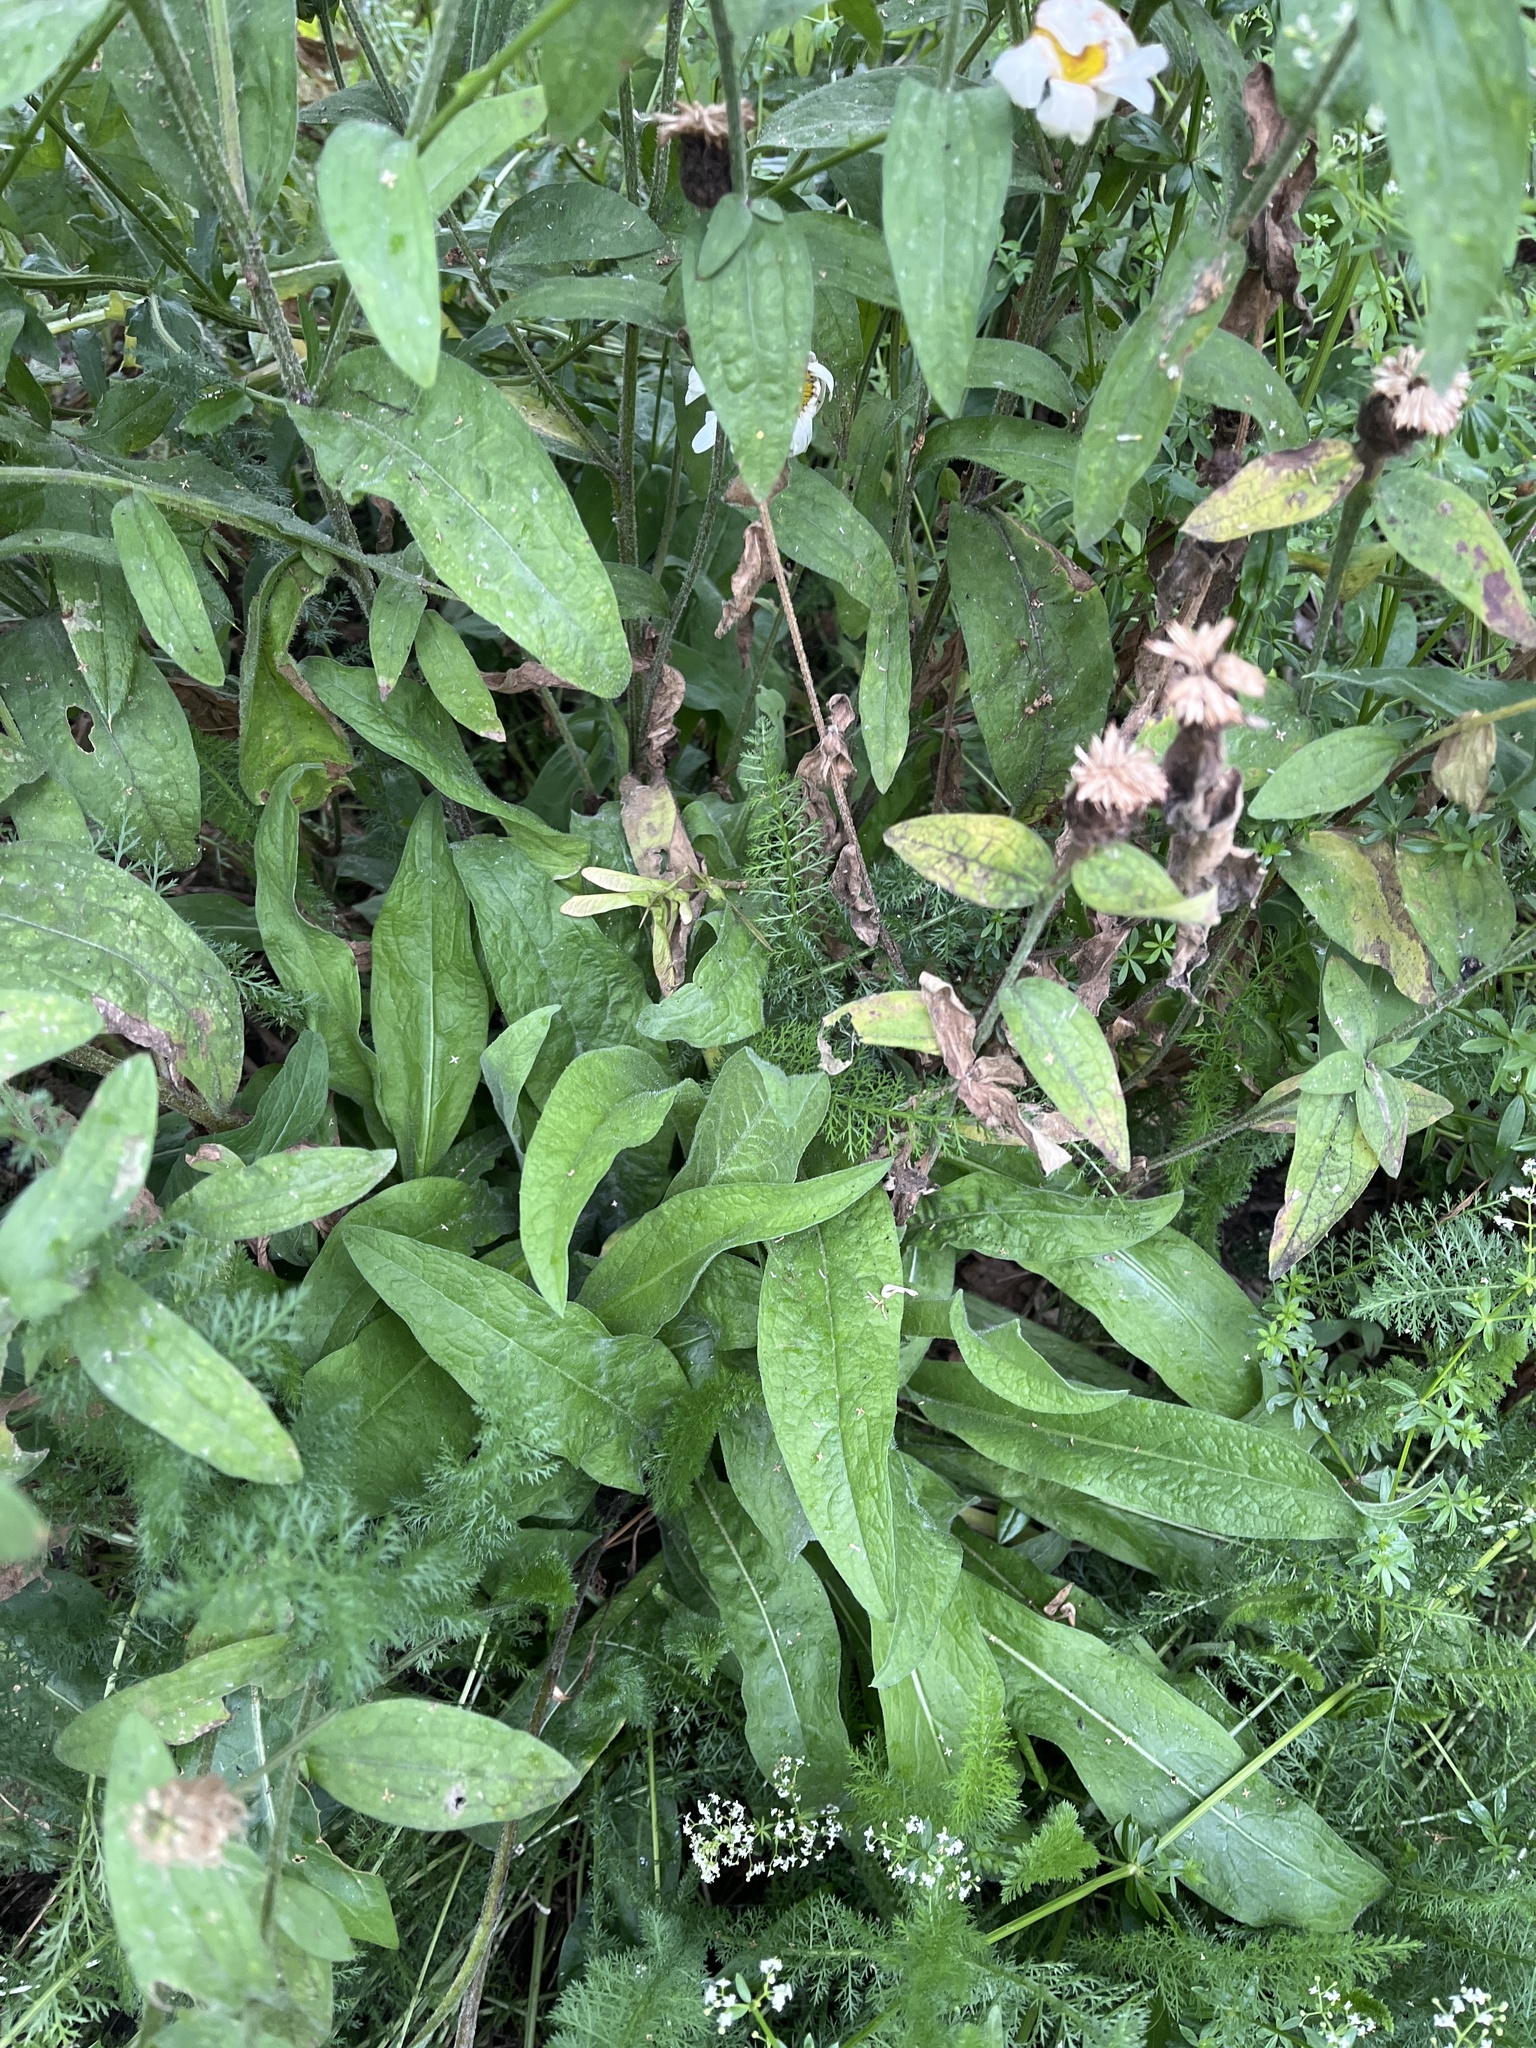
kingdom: Plantae
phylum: Tracheophyta
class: Magnoliopsida
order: Asterales
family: Asteraceae
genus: Centaurea
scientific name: Centaurea nigra
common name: Lesser knapweed
